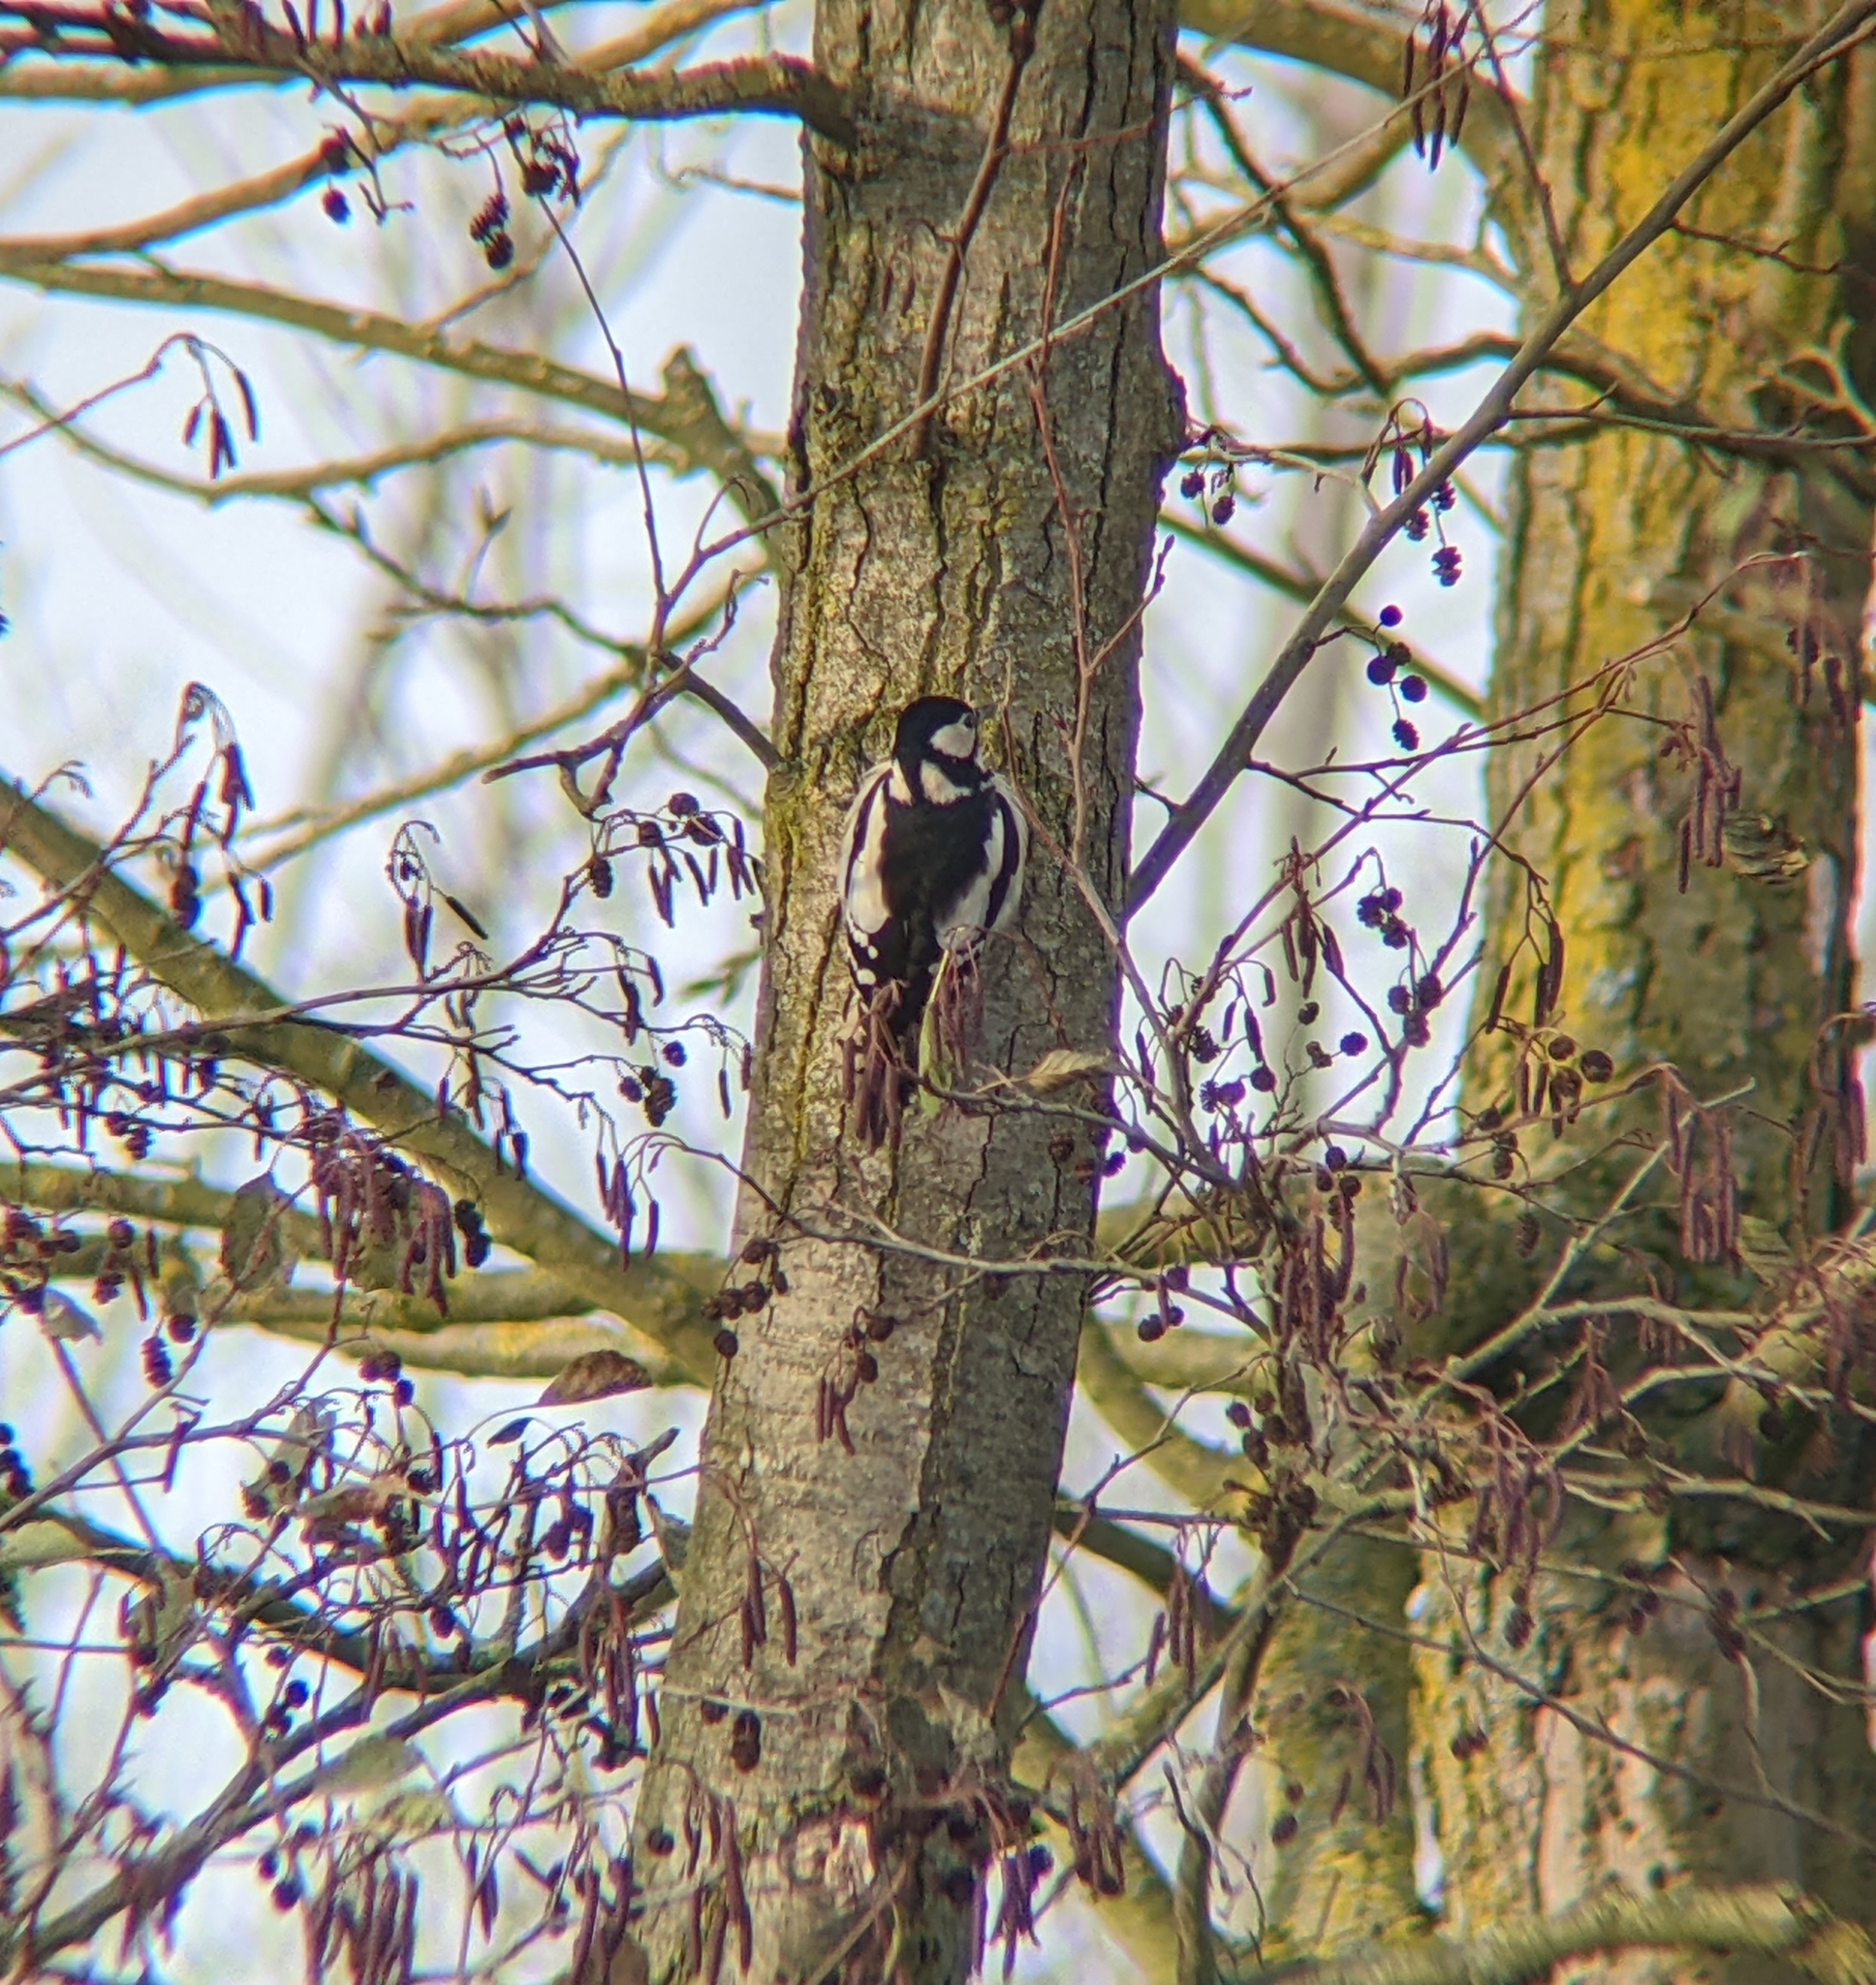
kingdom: Animalia
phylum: Chordata
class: Aves
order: Piciformes
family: Picidae
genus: Dendrocopos
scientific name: Dendrocopos major
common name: Great spotted woodpecker
